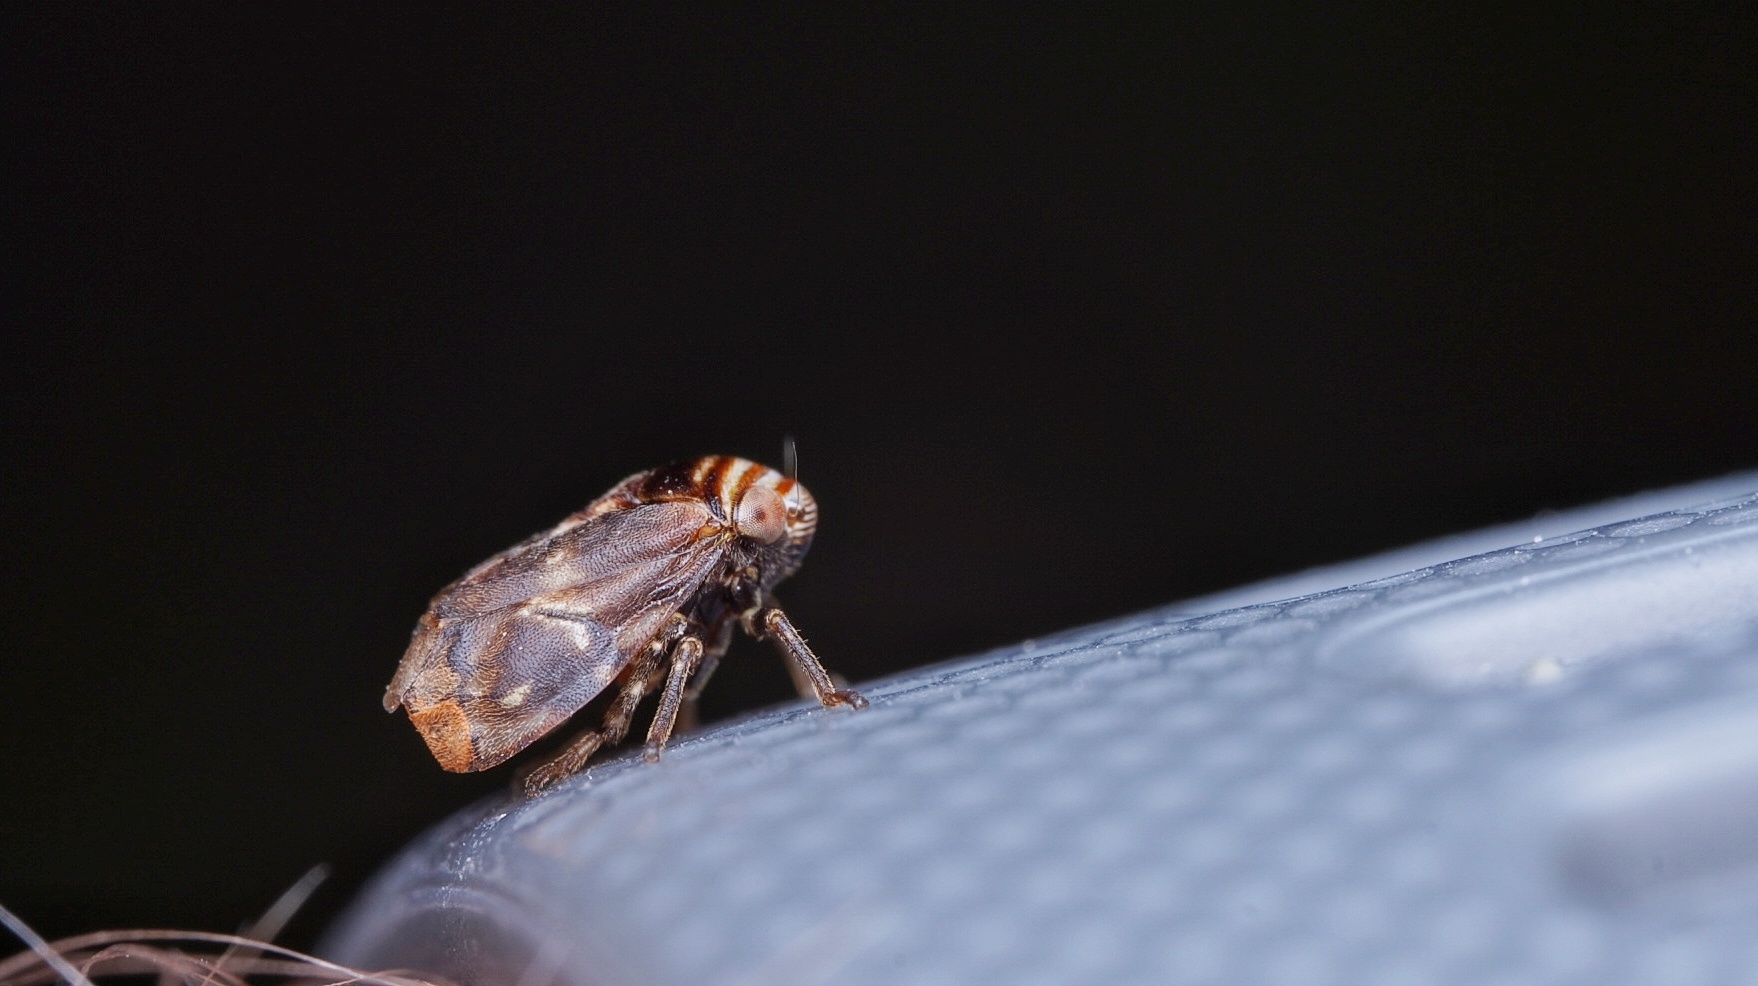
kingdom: Animalia
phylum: Arthropoda
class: Insecta
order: Hemiptera
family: Clastopteridae
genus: Clastoptera
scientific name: Clastoptera obtusa
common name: Alder spittlebug
